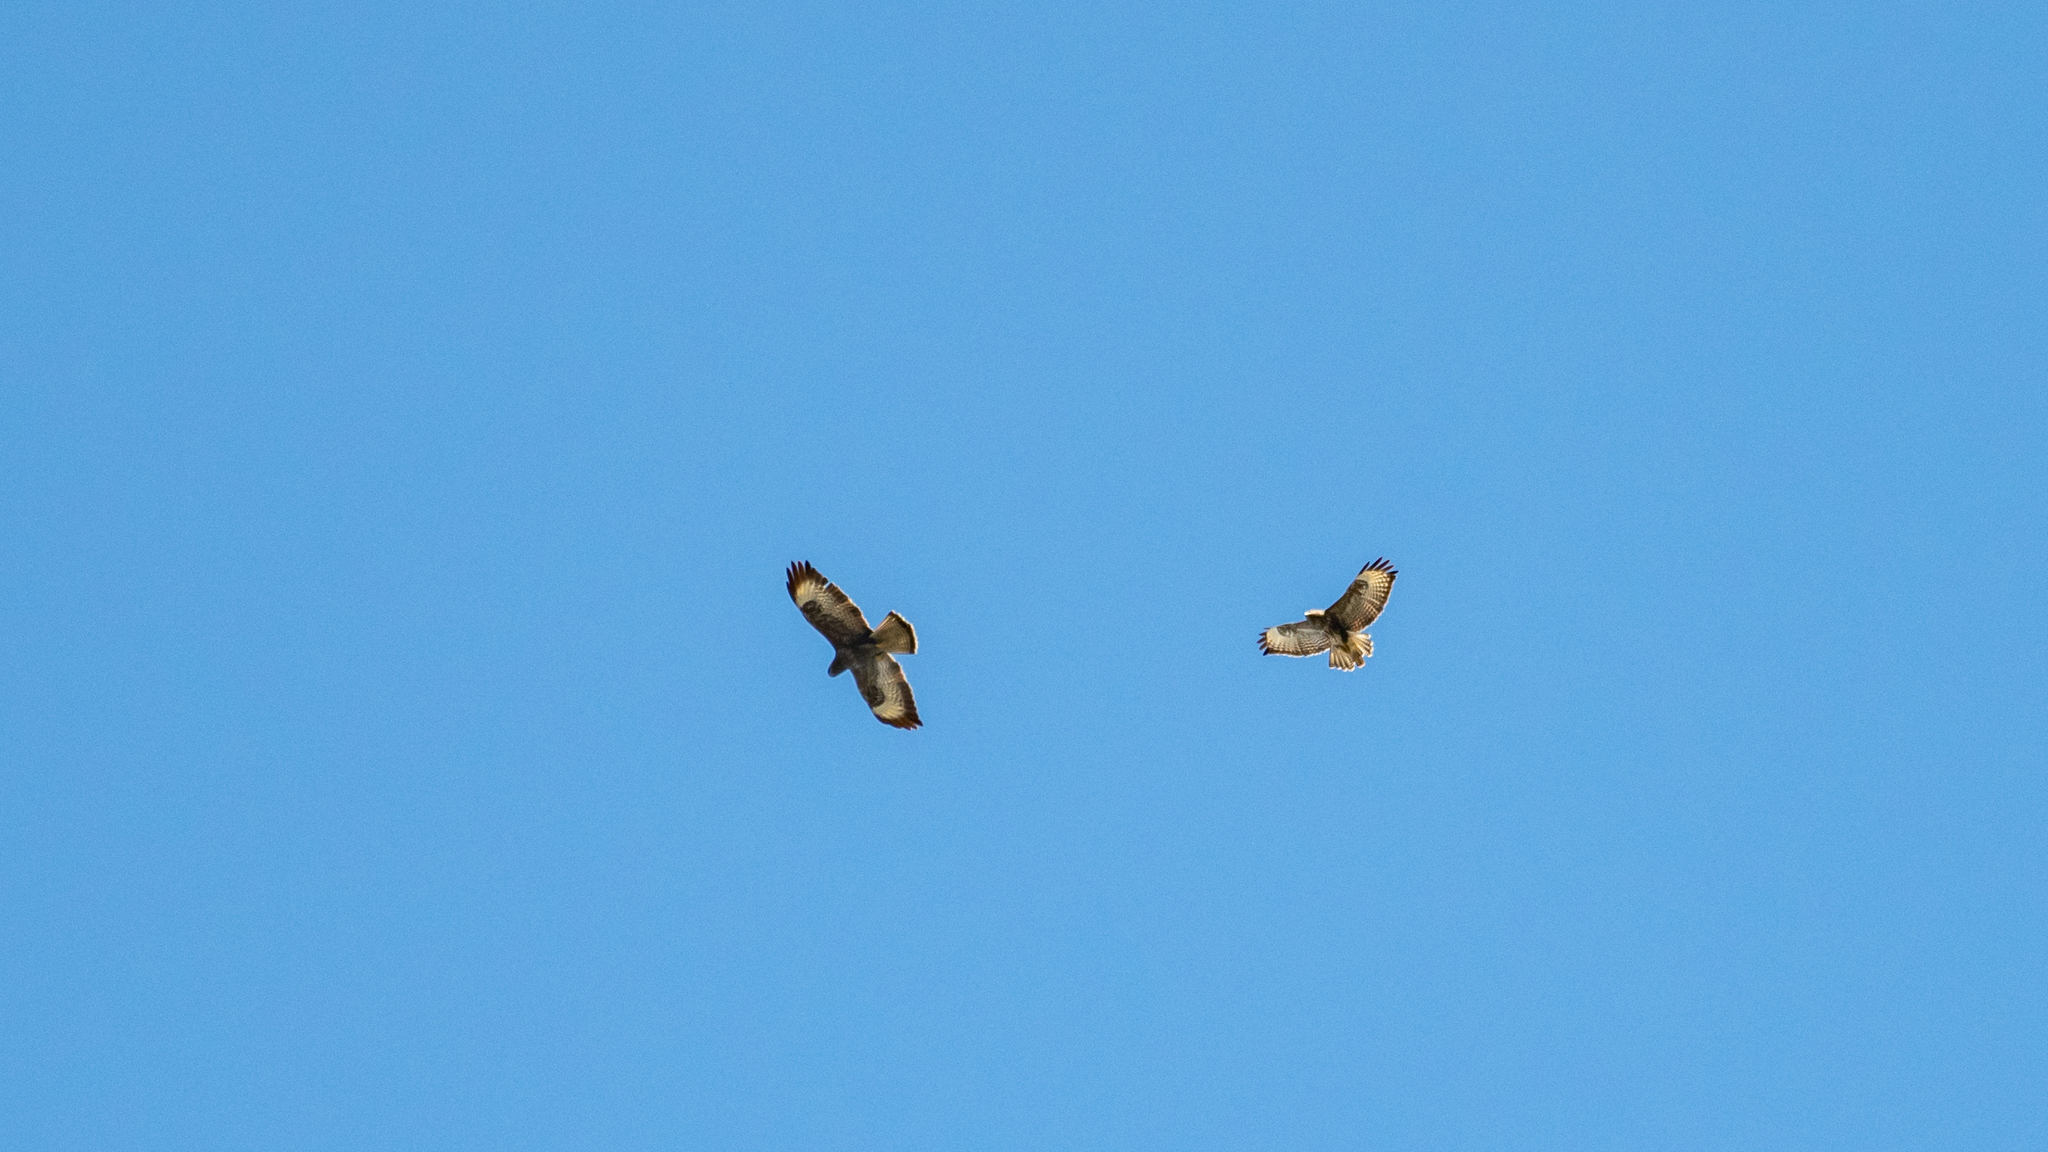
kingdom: Animalia
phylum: Chordata
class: Aves
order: Accipitriformes
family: Accipitridae
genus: Buteo
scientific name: Buteo buteo
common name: Common buzzard
